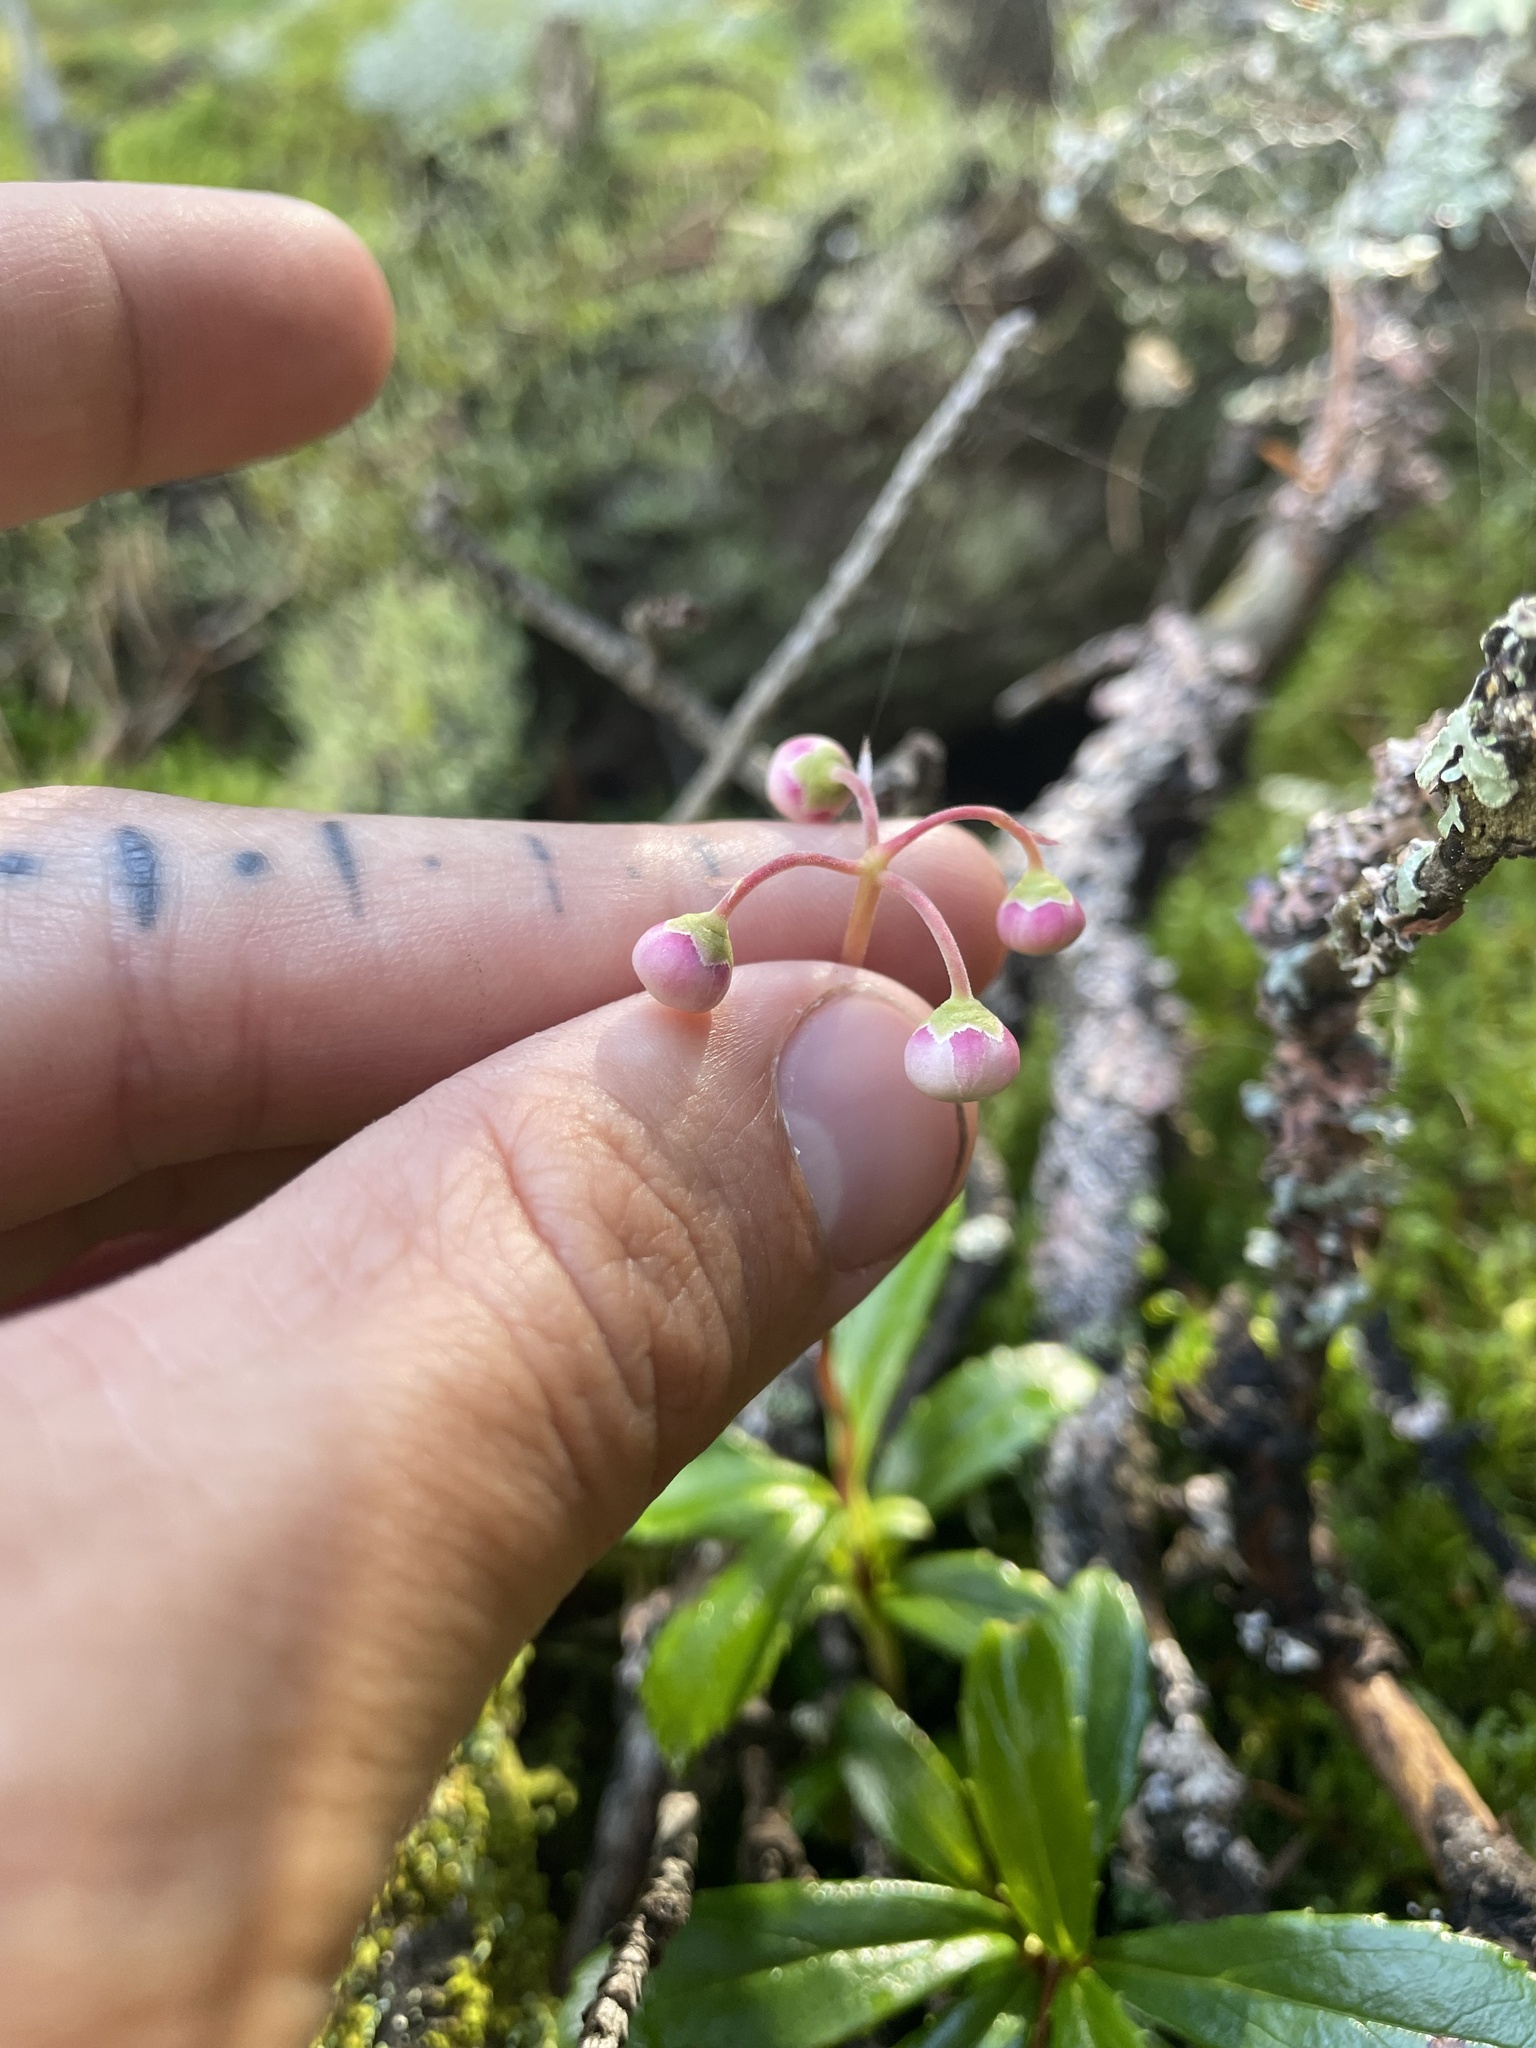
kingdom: Plantae
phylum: Tracheophyta
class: Magnoliopsida
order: Ericales
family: Ericaceae
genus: Chimaphila
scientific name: Chimaphila umbellata
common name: Pipsissewa
